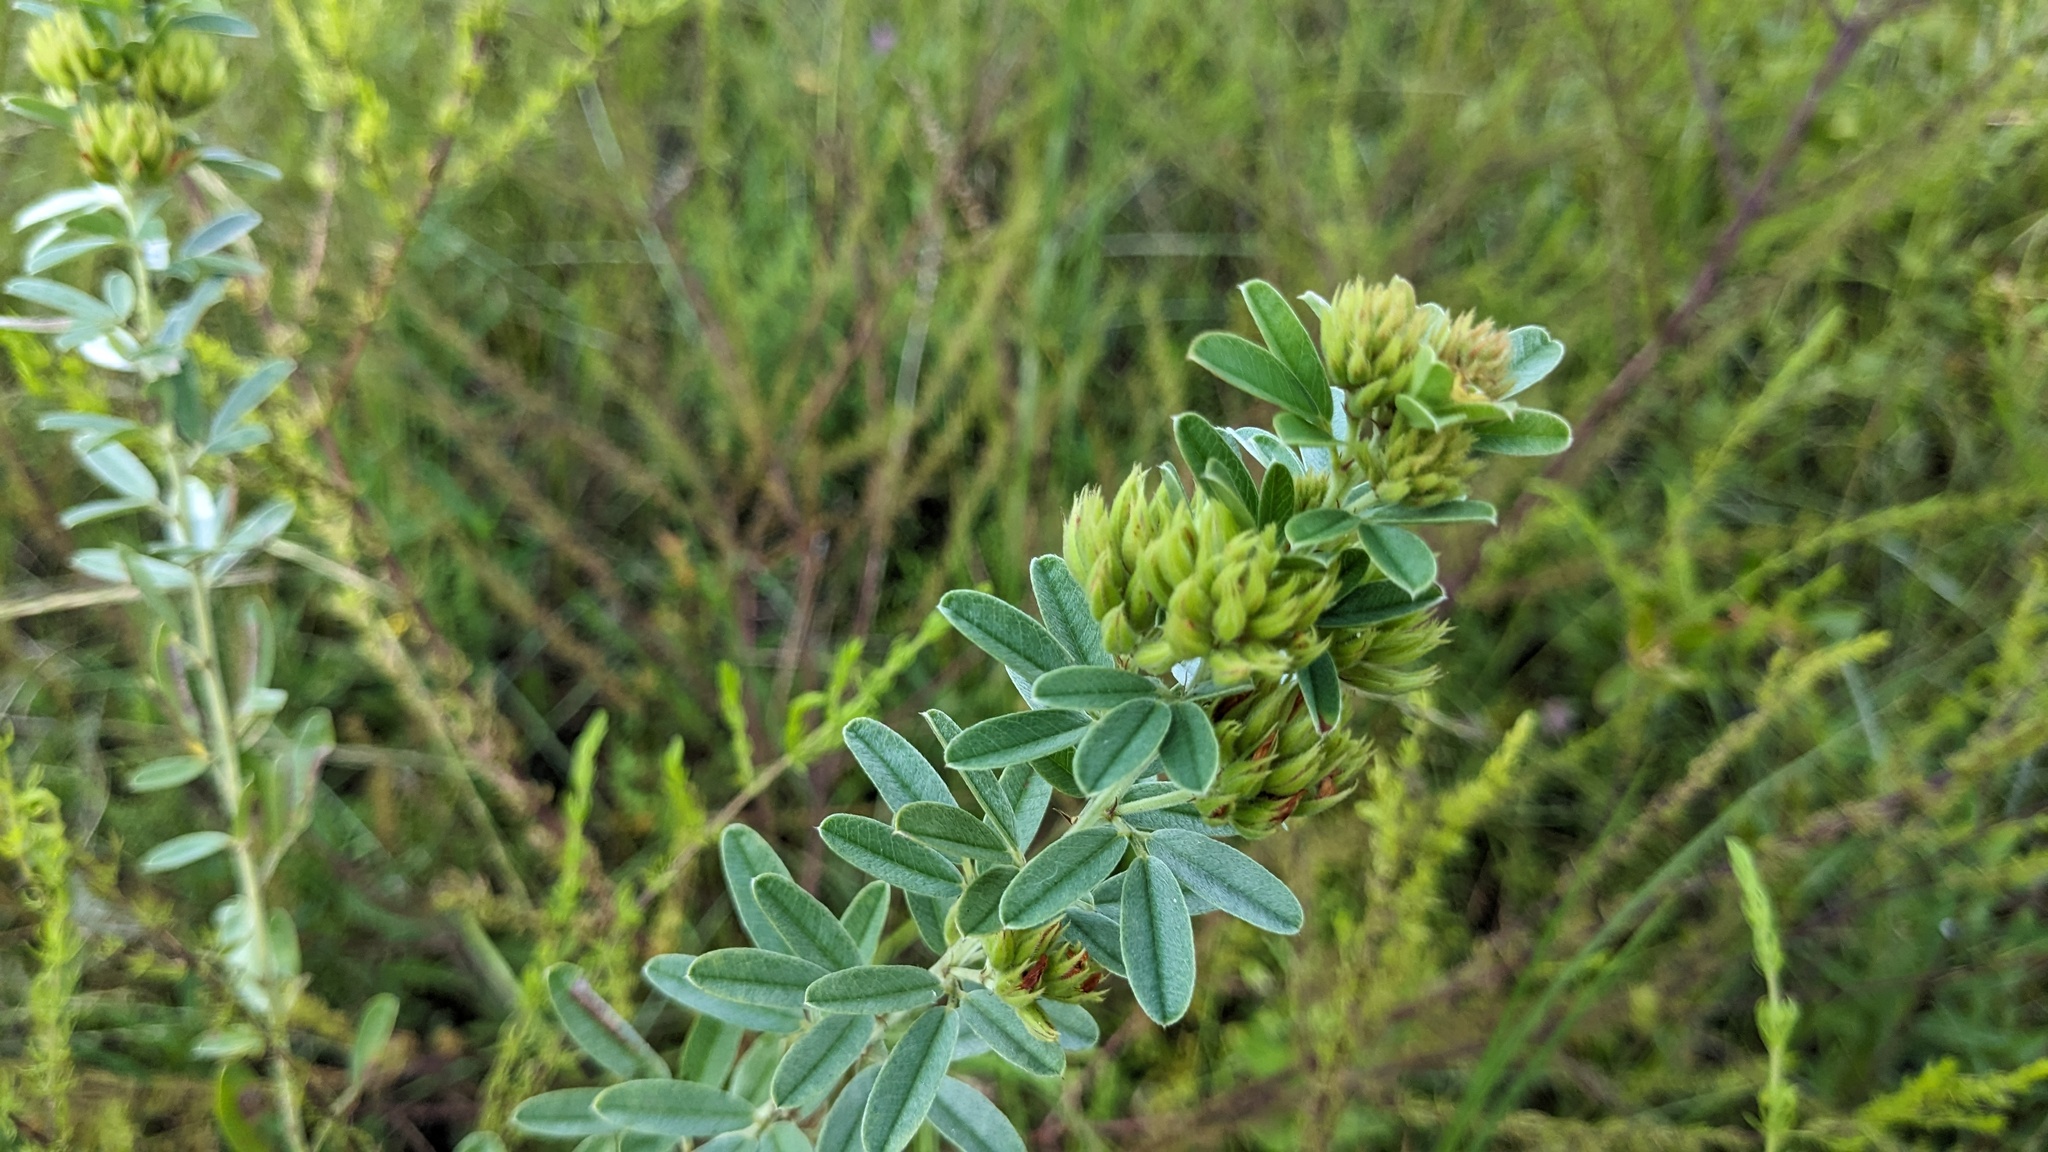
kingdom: Plantae
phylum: Tracheophyta
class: Magnoliopsida
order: Fabales
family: Fabaceae
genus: Lespedeza
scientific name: Lespedeza capitata
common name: Dusty clover
